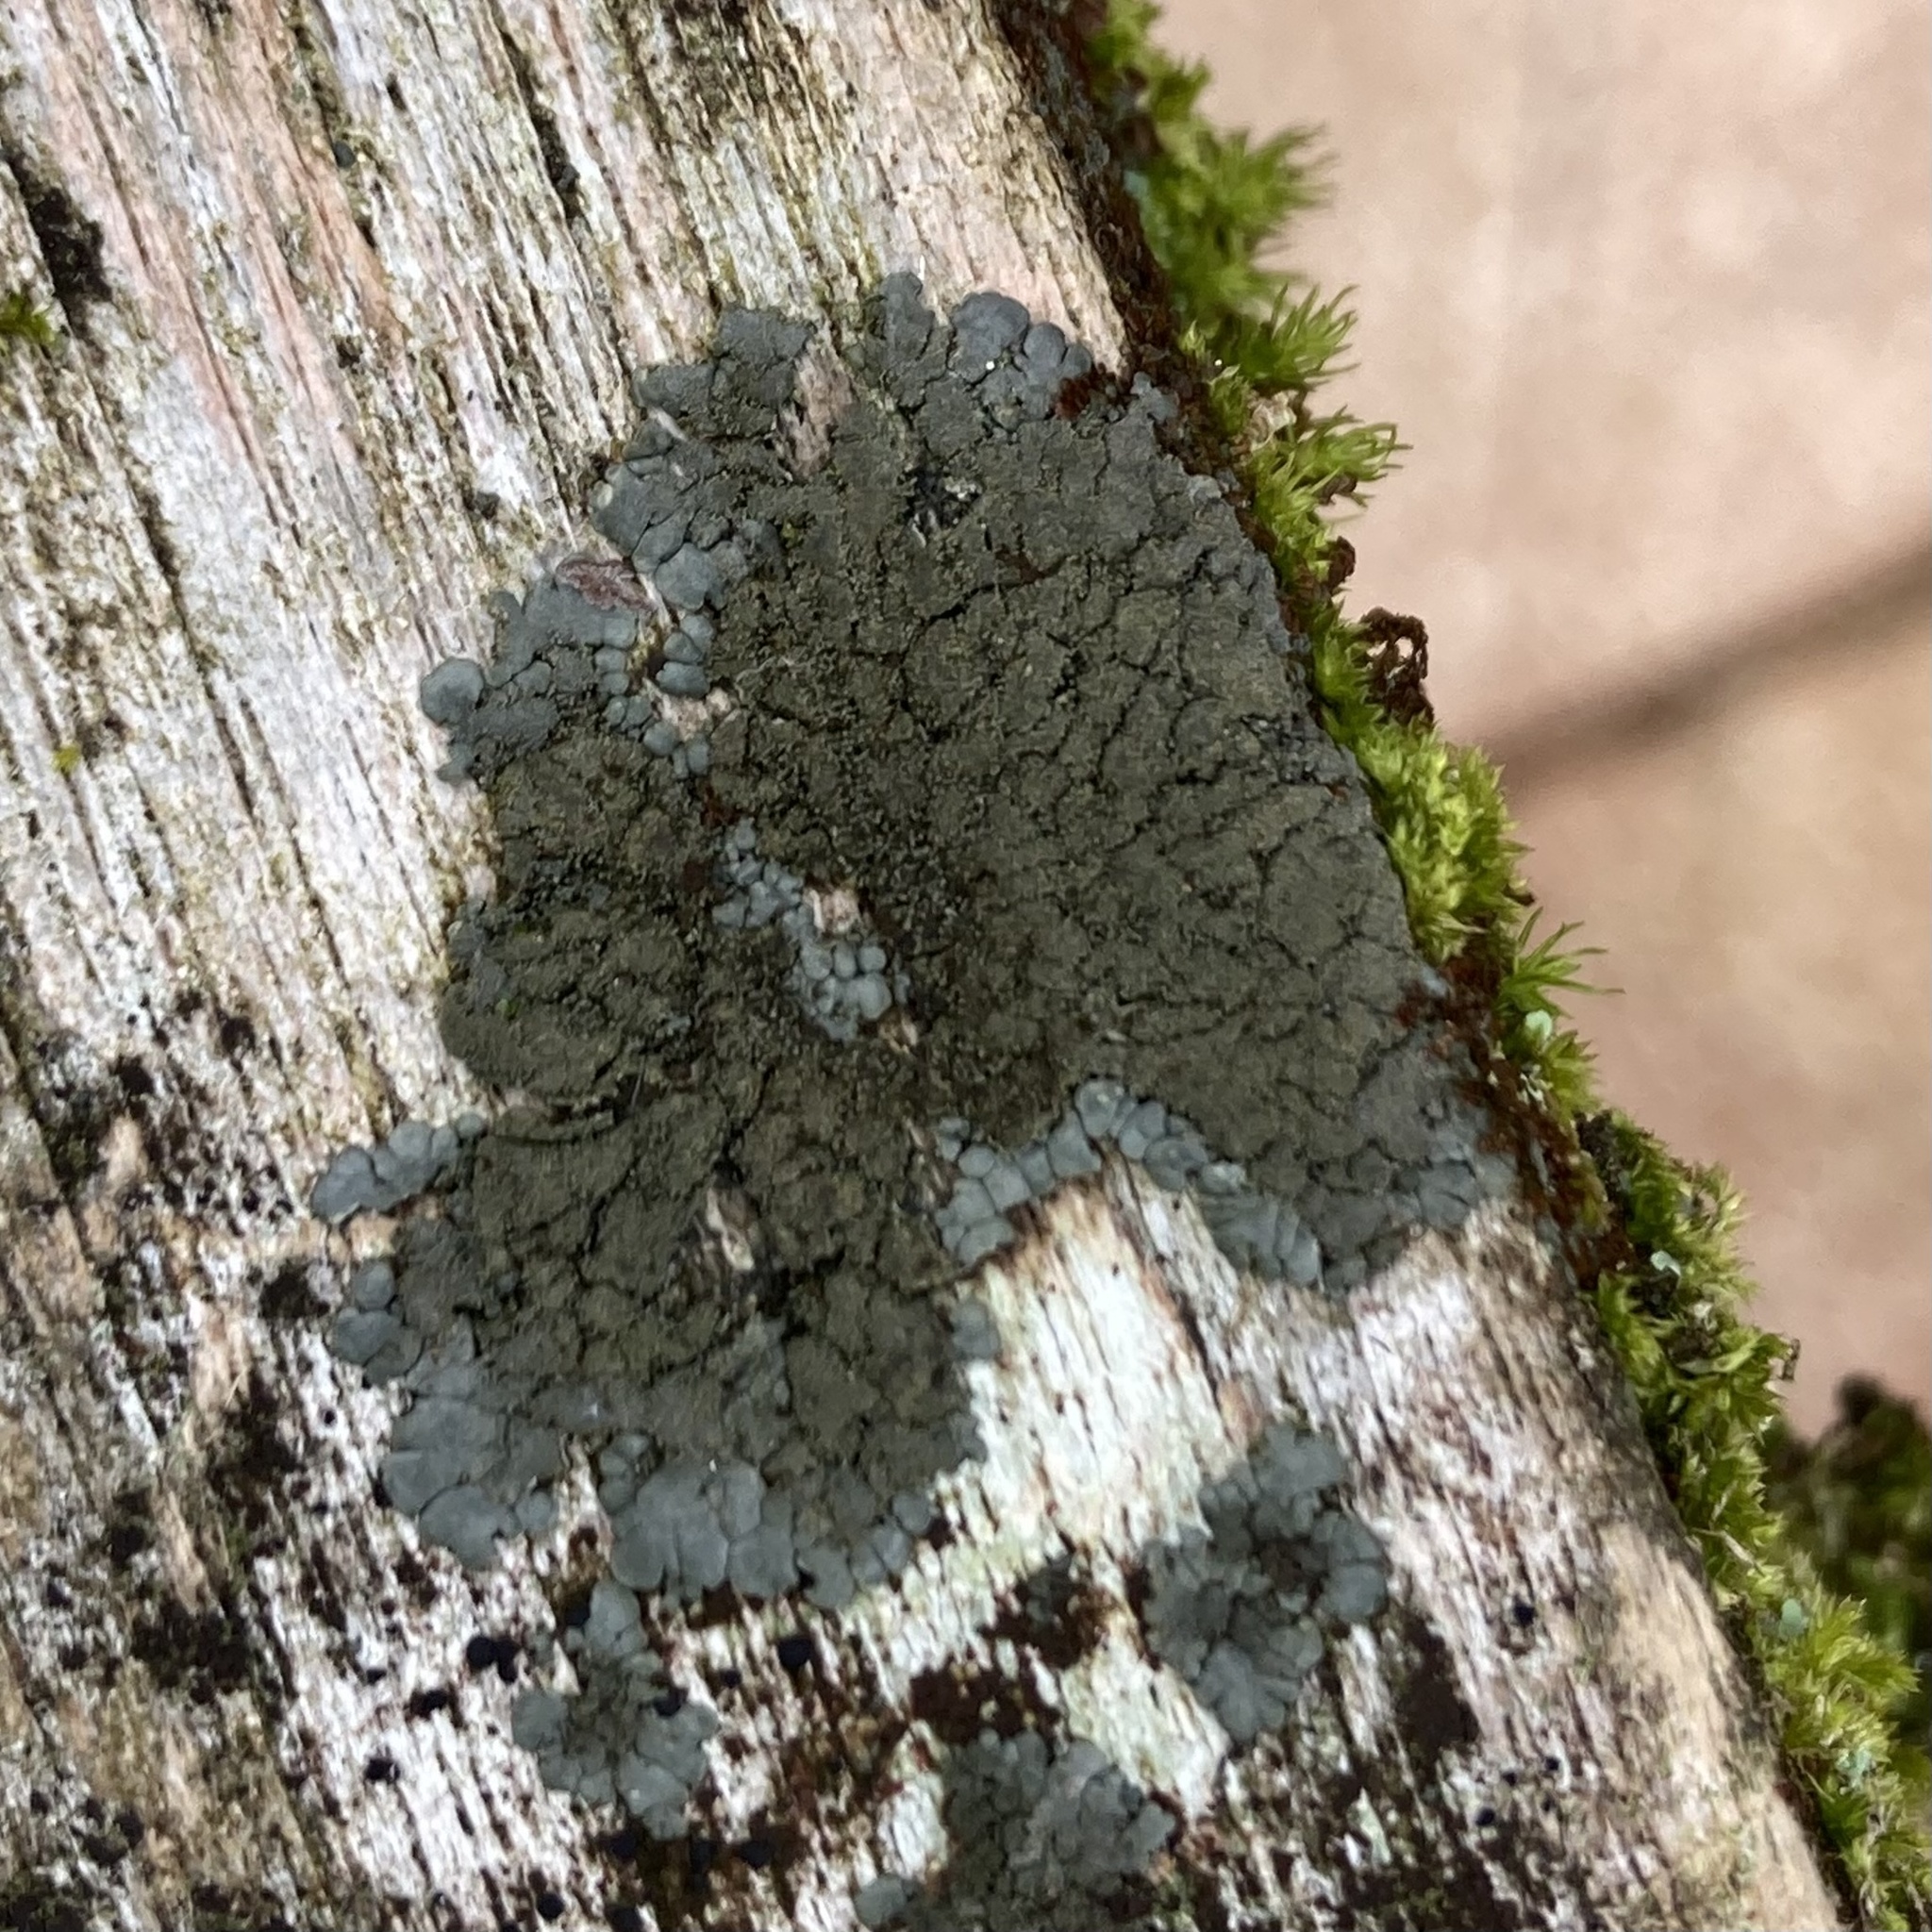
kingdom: Fungi
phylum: Ascomycota
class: Lecanoromycetes
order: Peltigerales
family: Coccocarpiaceae
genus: Coccocarpia
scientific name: Coccocarpia palmicola
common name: Salted shell lichen
